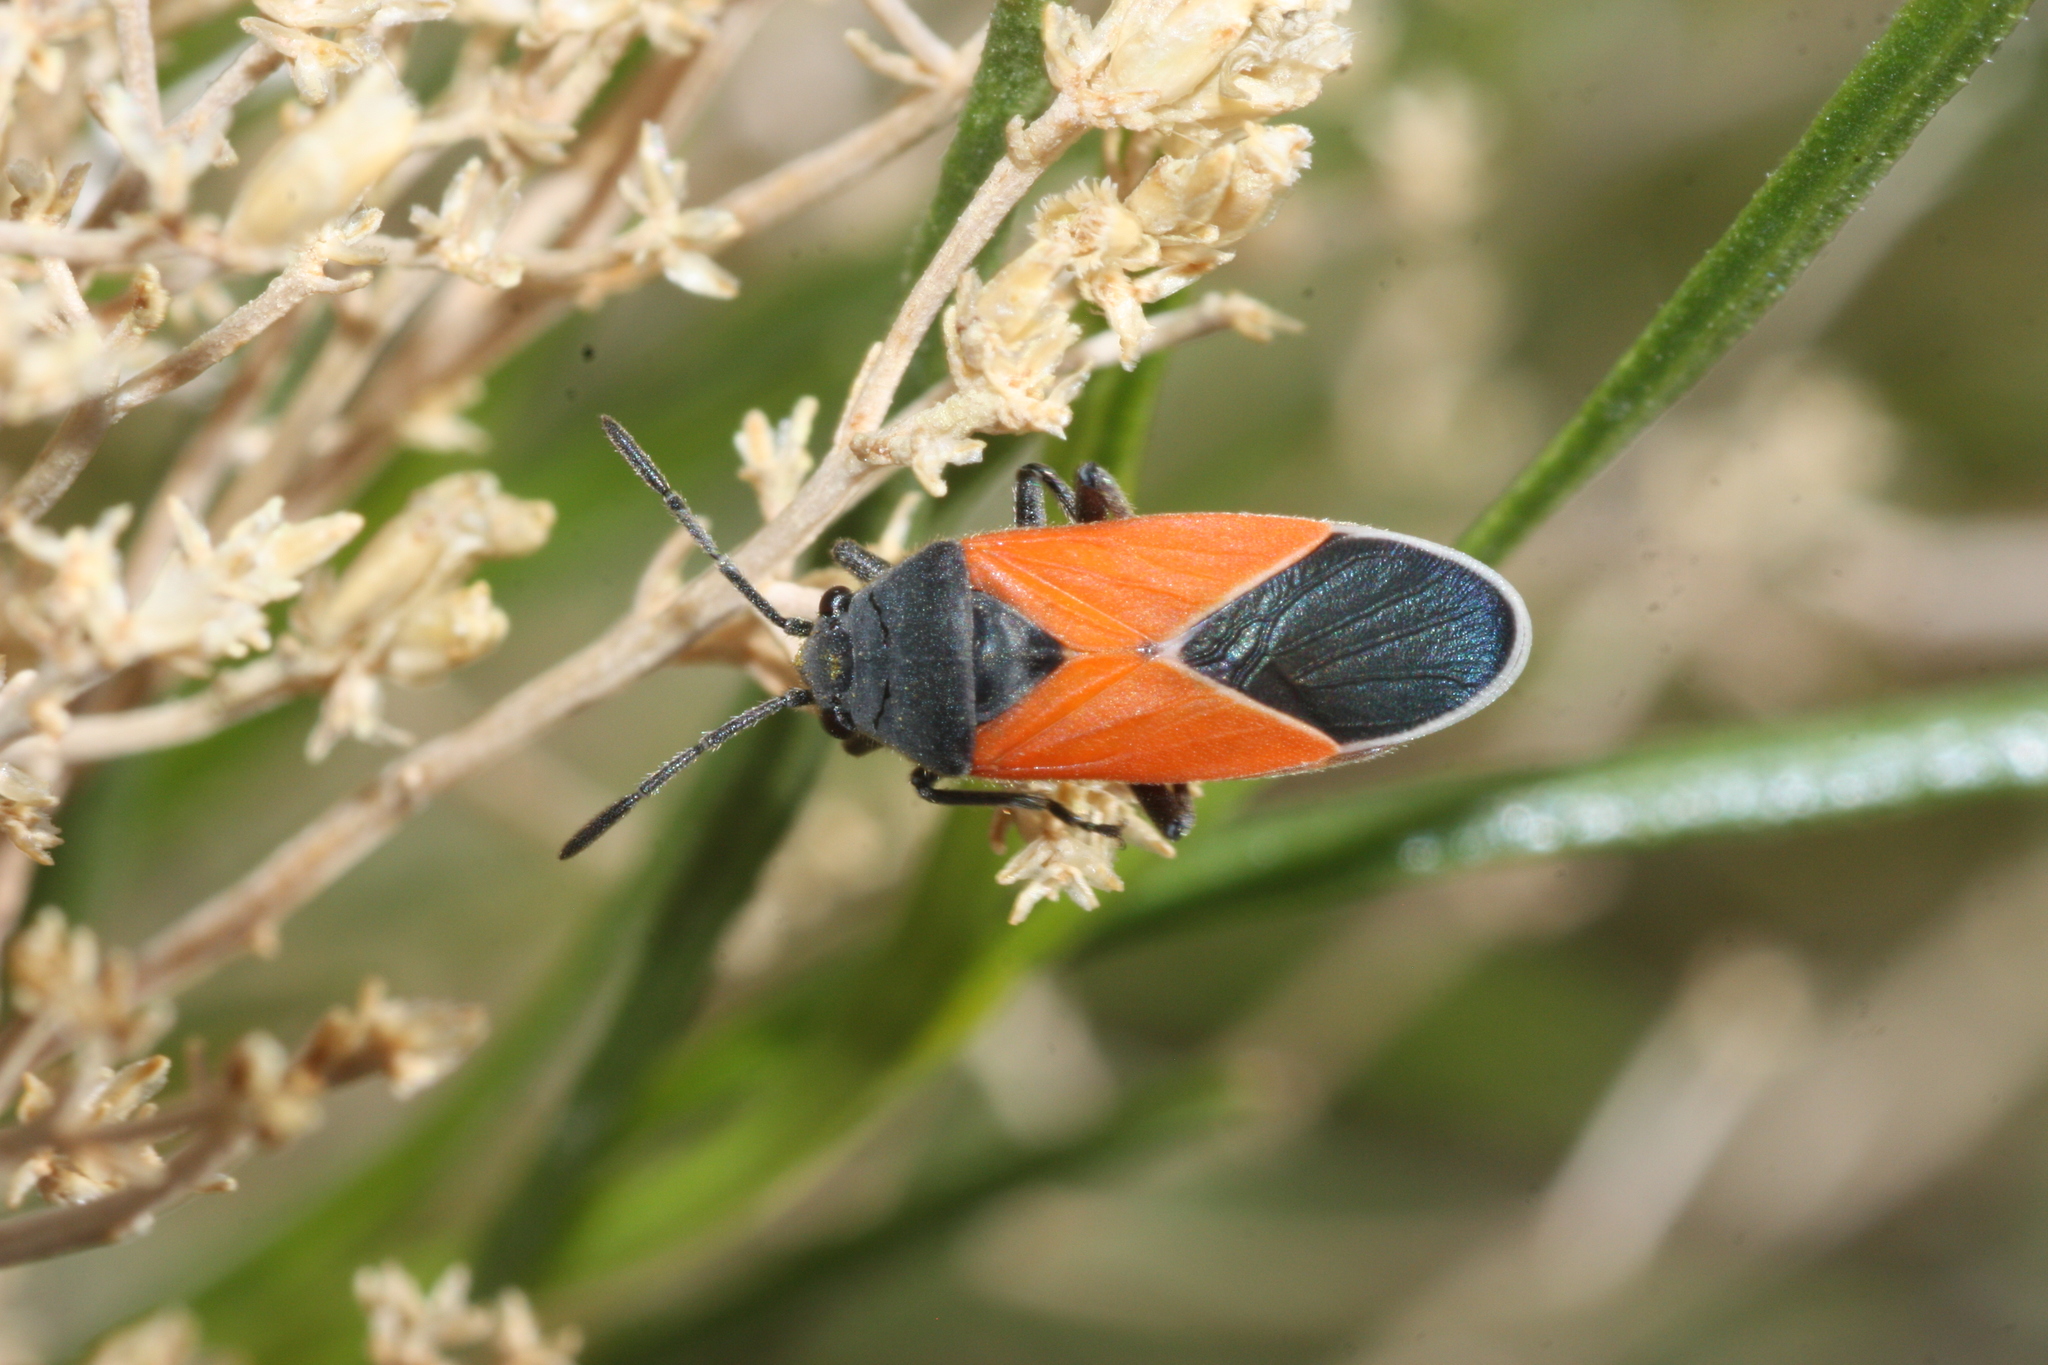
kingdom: Animalia
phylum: Arthropoda
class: Insecta
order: Hemiptera
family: Lygaeidae
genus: Melanopleurus
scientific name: Melanopleurus belfragei
